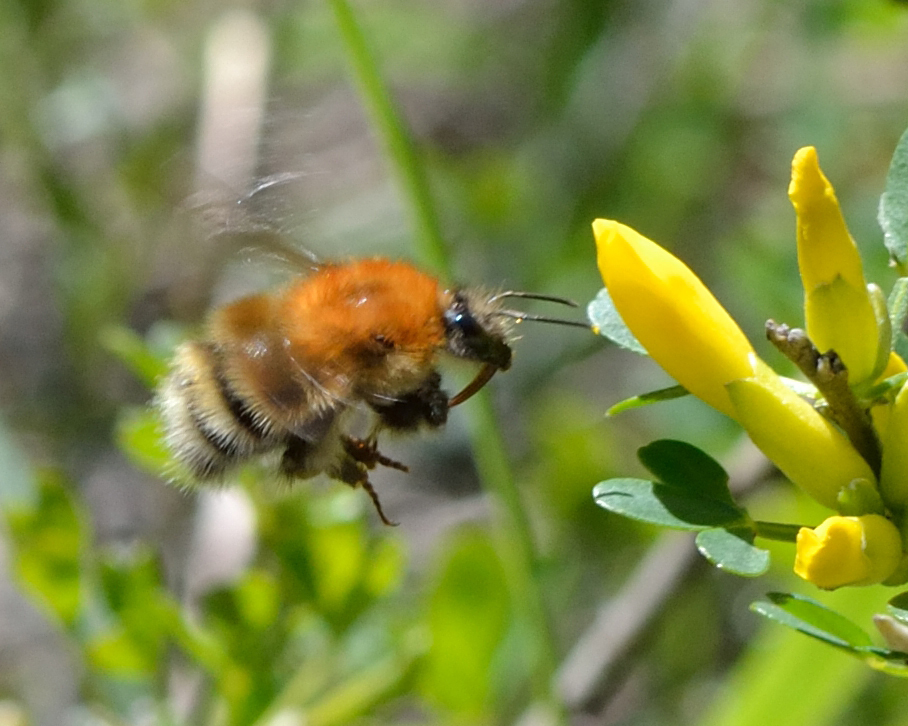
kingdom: Animalia
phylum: Arthropoda
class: Insecta
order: Hymenoptera
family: Apidae
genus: Bombus
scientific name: Bombus schrencki
